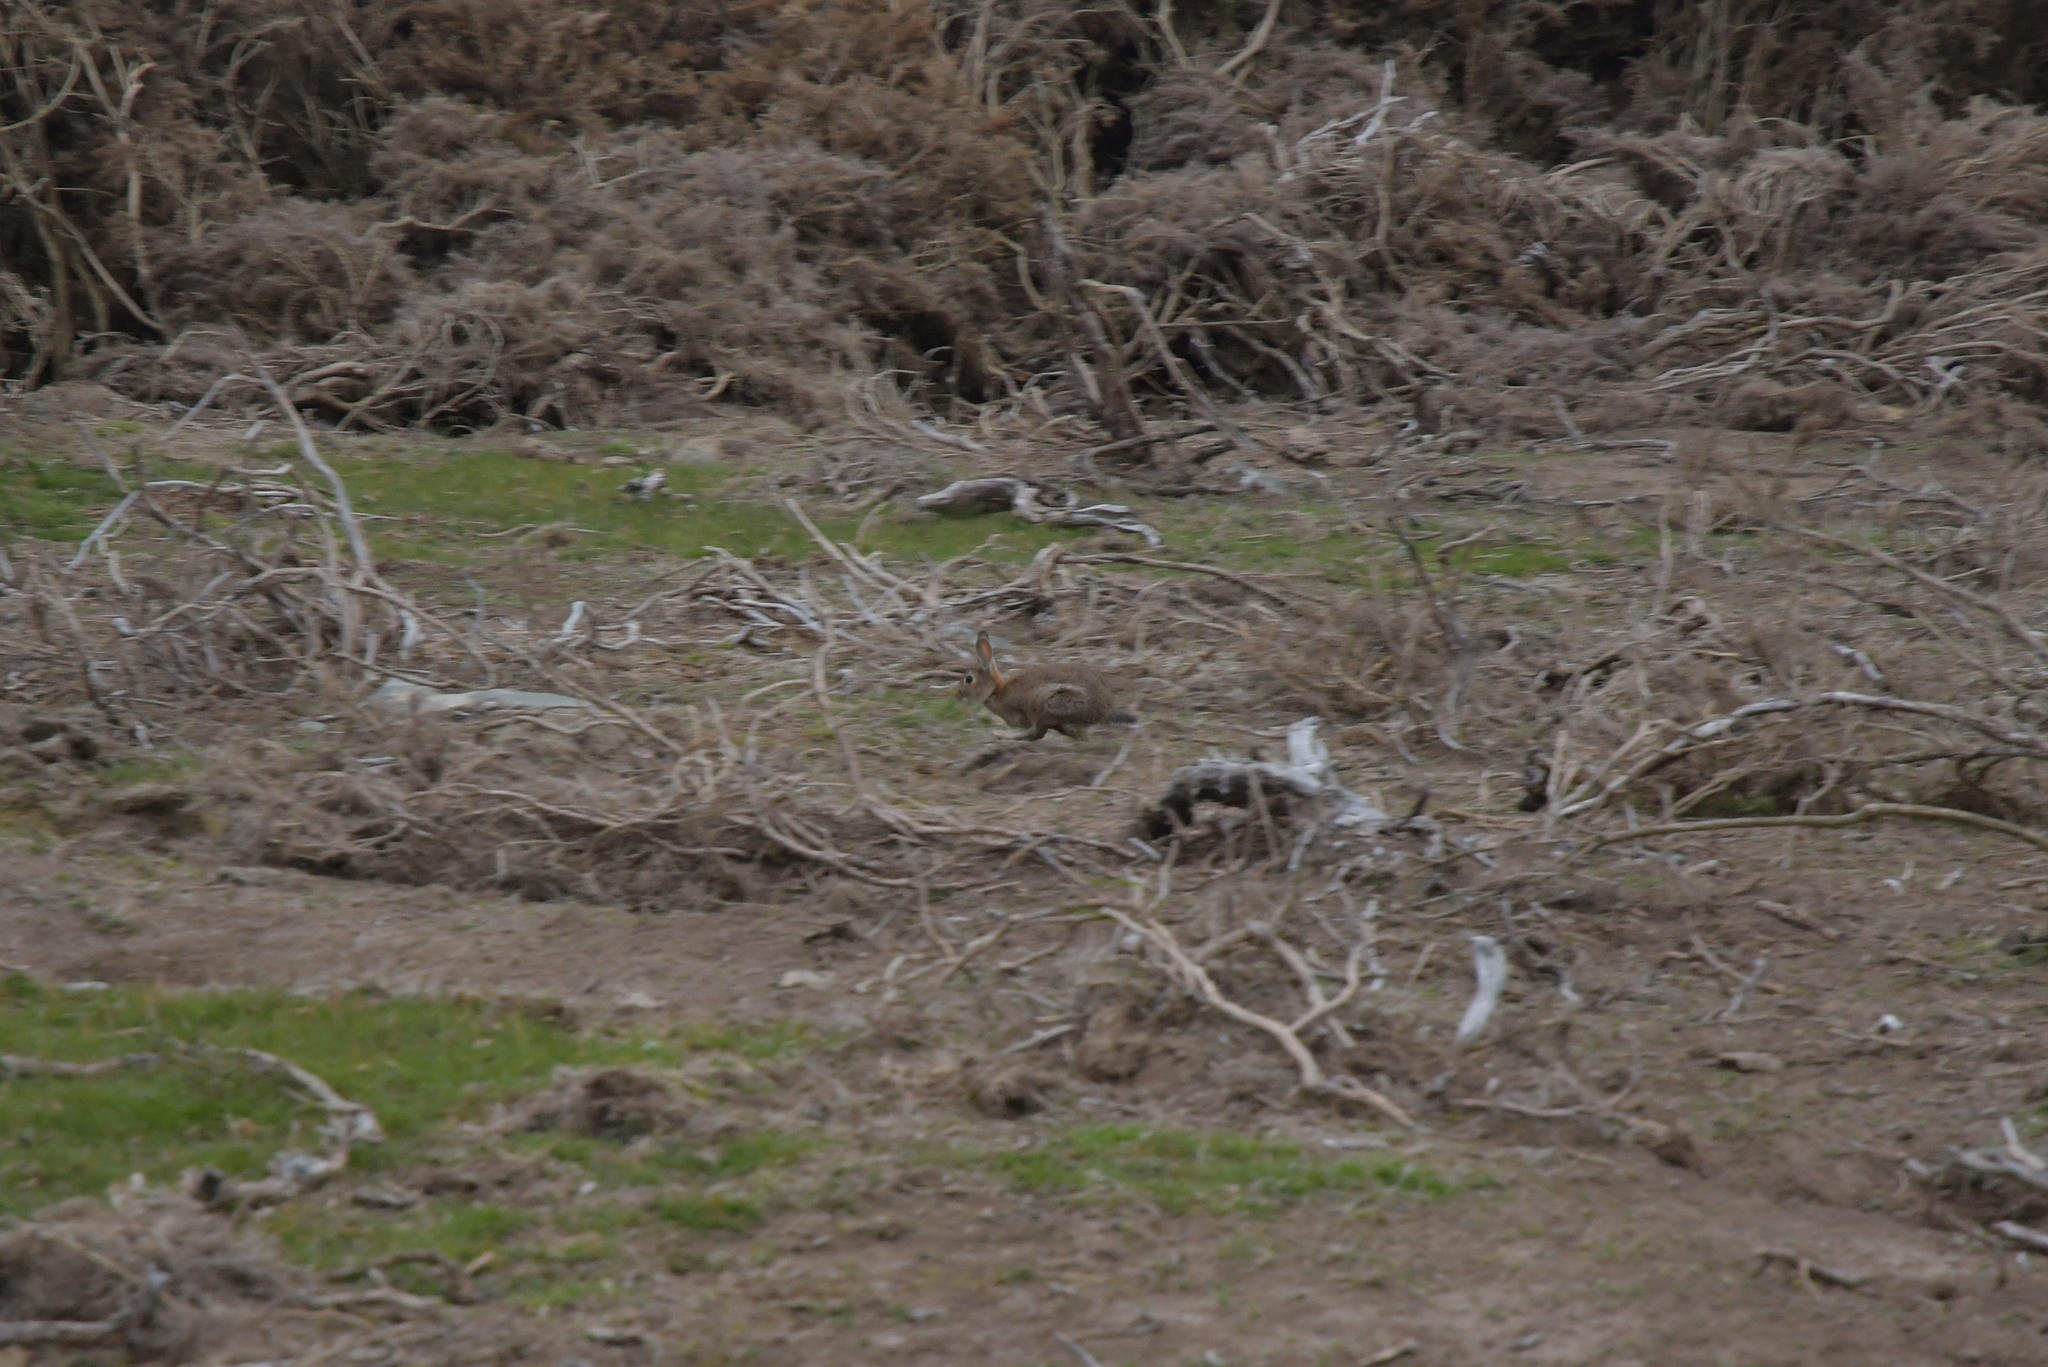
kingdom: Animalia
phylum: Chordata
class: Mammalia
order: Lagomorpha
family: Leporidae
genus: Oryctolagus
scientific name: Oryctolagus cuniculus
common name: European rabbit
